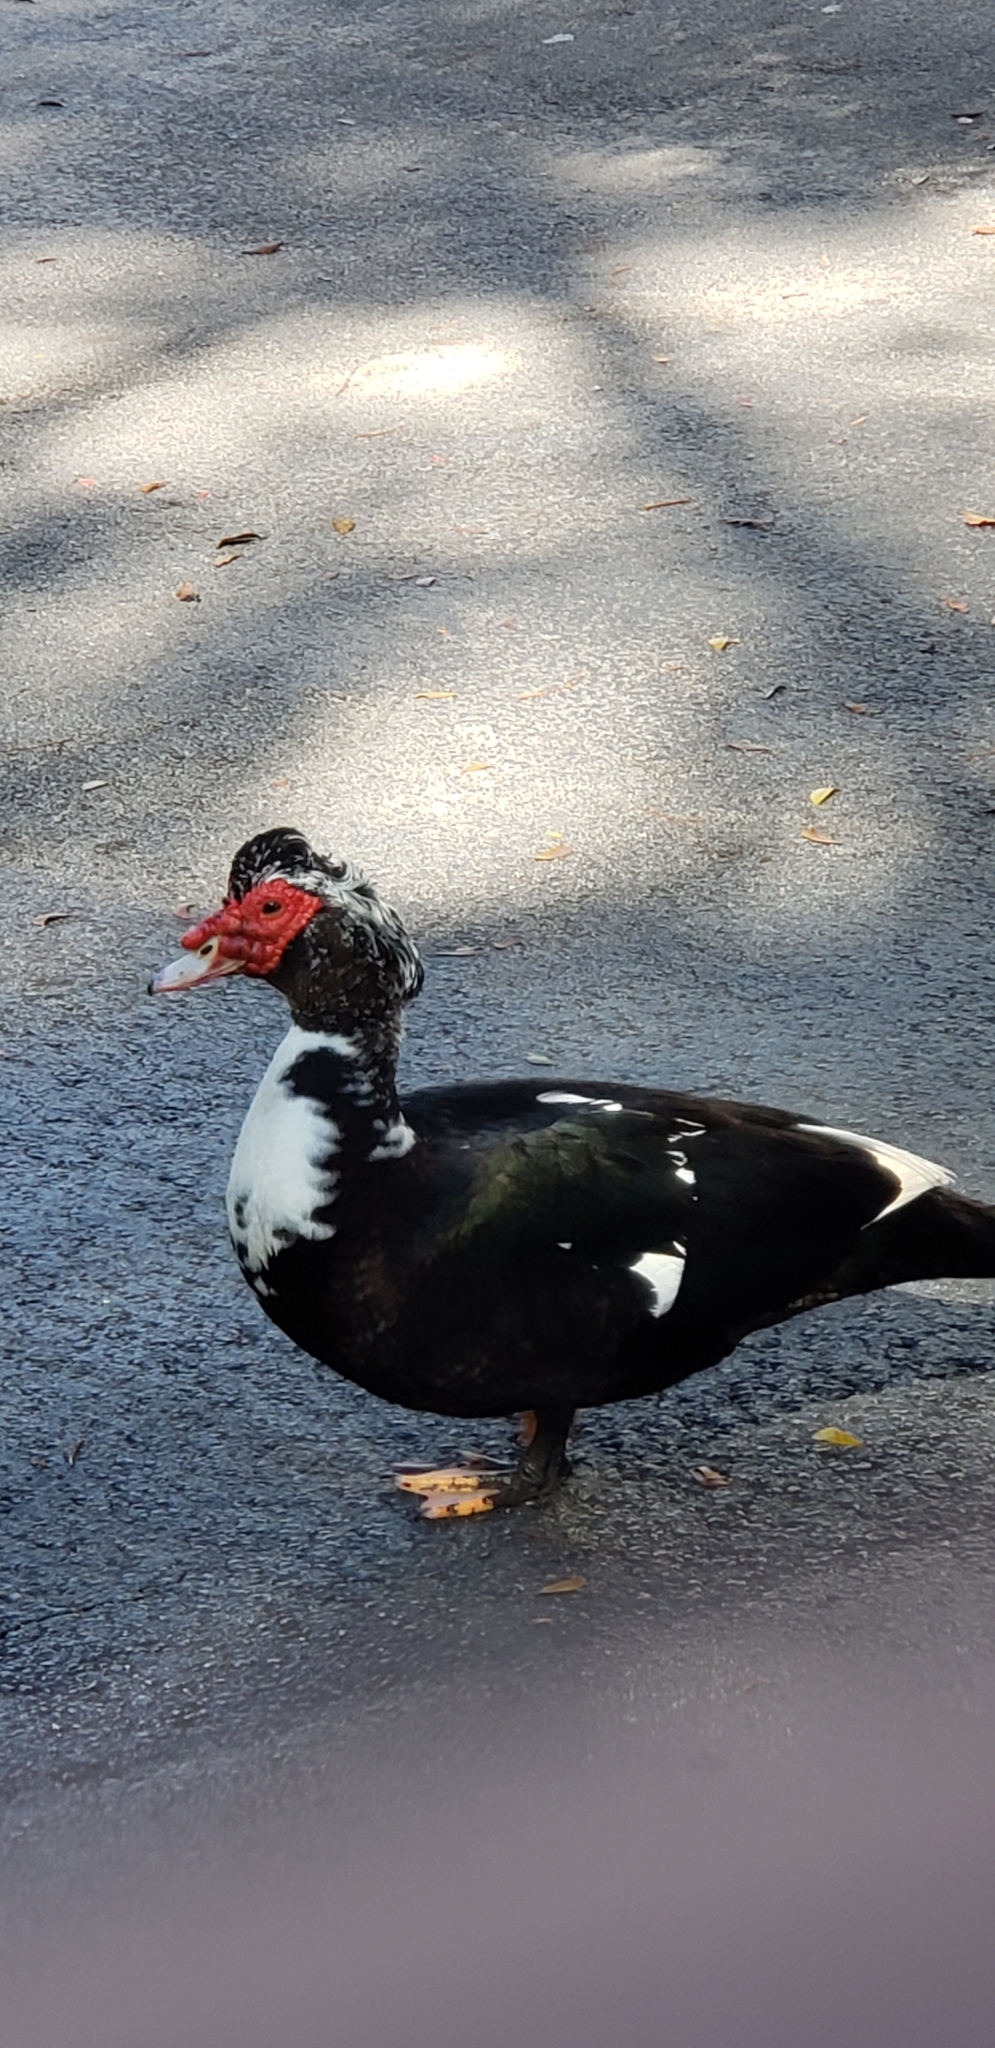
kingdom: Animalia
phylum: Chordata
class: Aves
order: Anseriformes
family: Anatidae
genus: Cairina
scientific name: Cairina moschata
